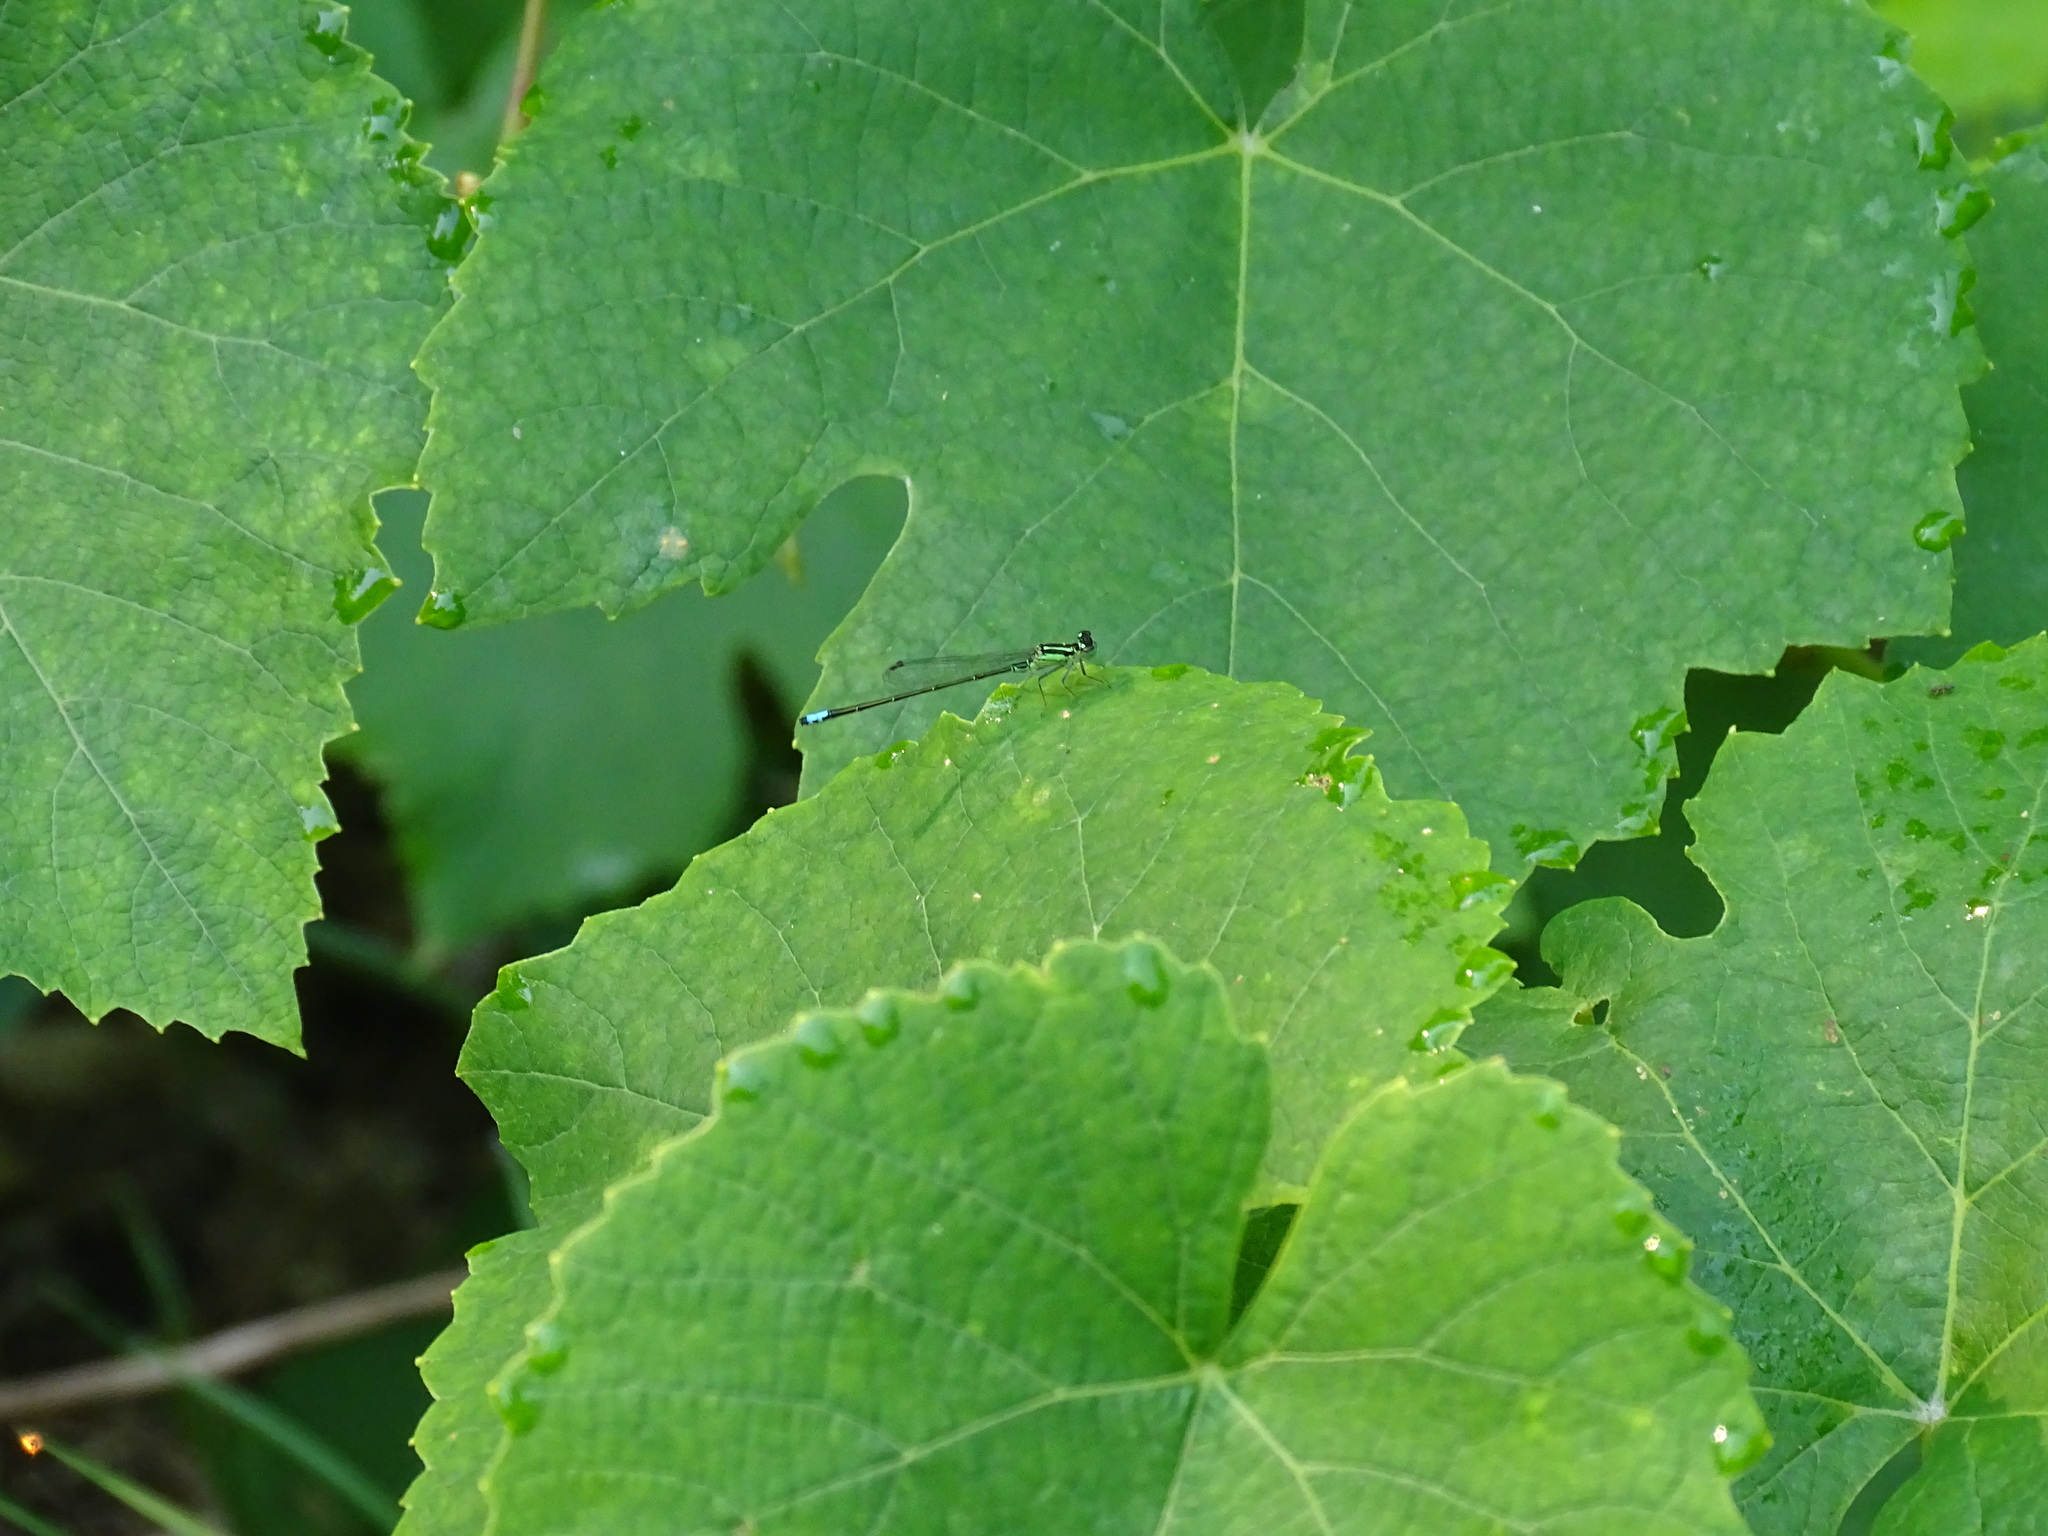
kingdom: Animalia
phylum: Arthropoda
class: Insecta
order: Odonata
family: Coenagrionidae
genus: Ischnura
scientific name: Ischnura verticalis
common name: Eastern forktail
